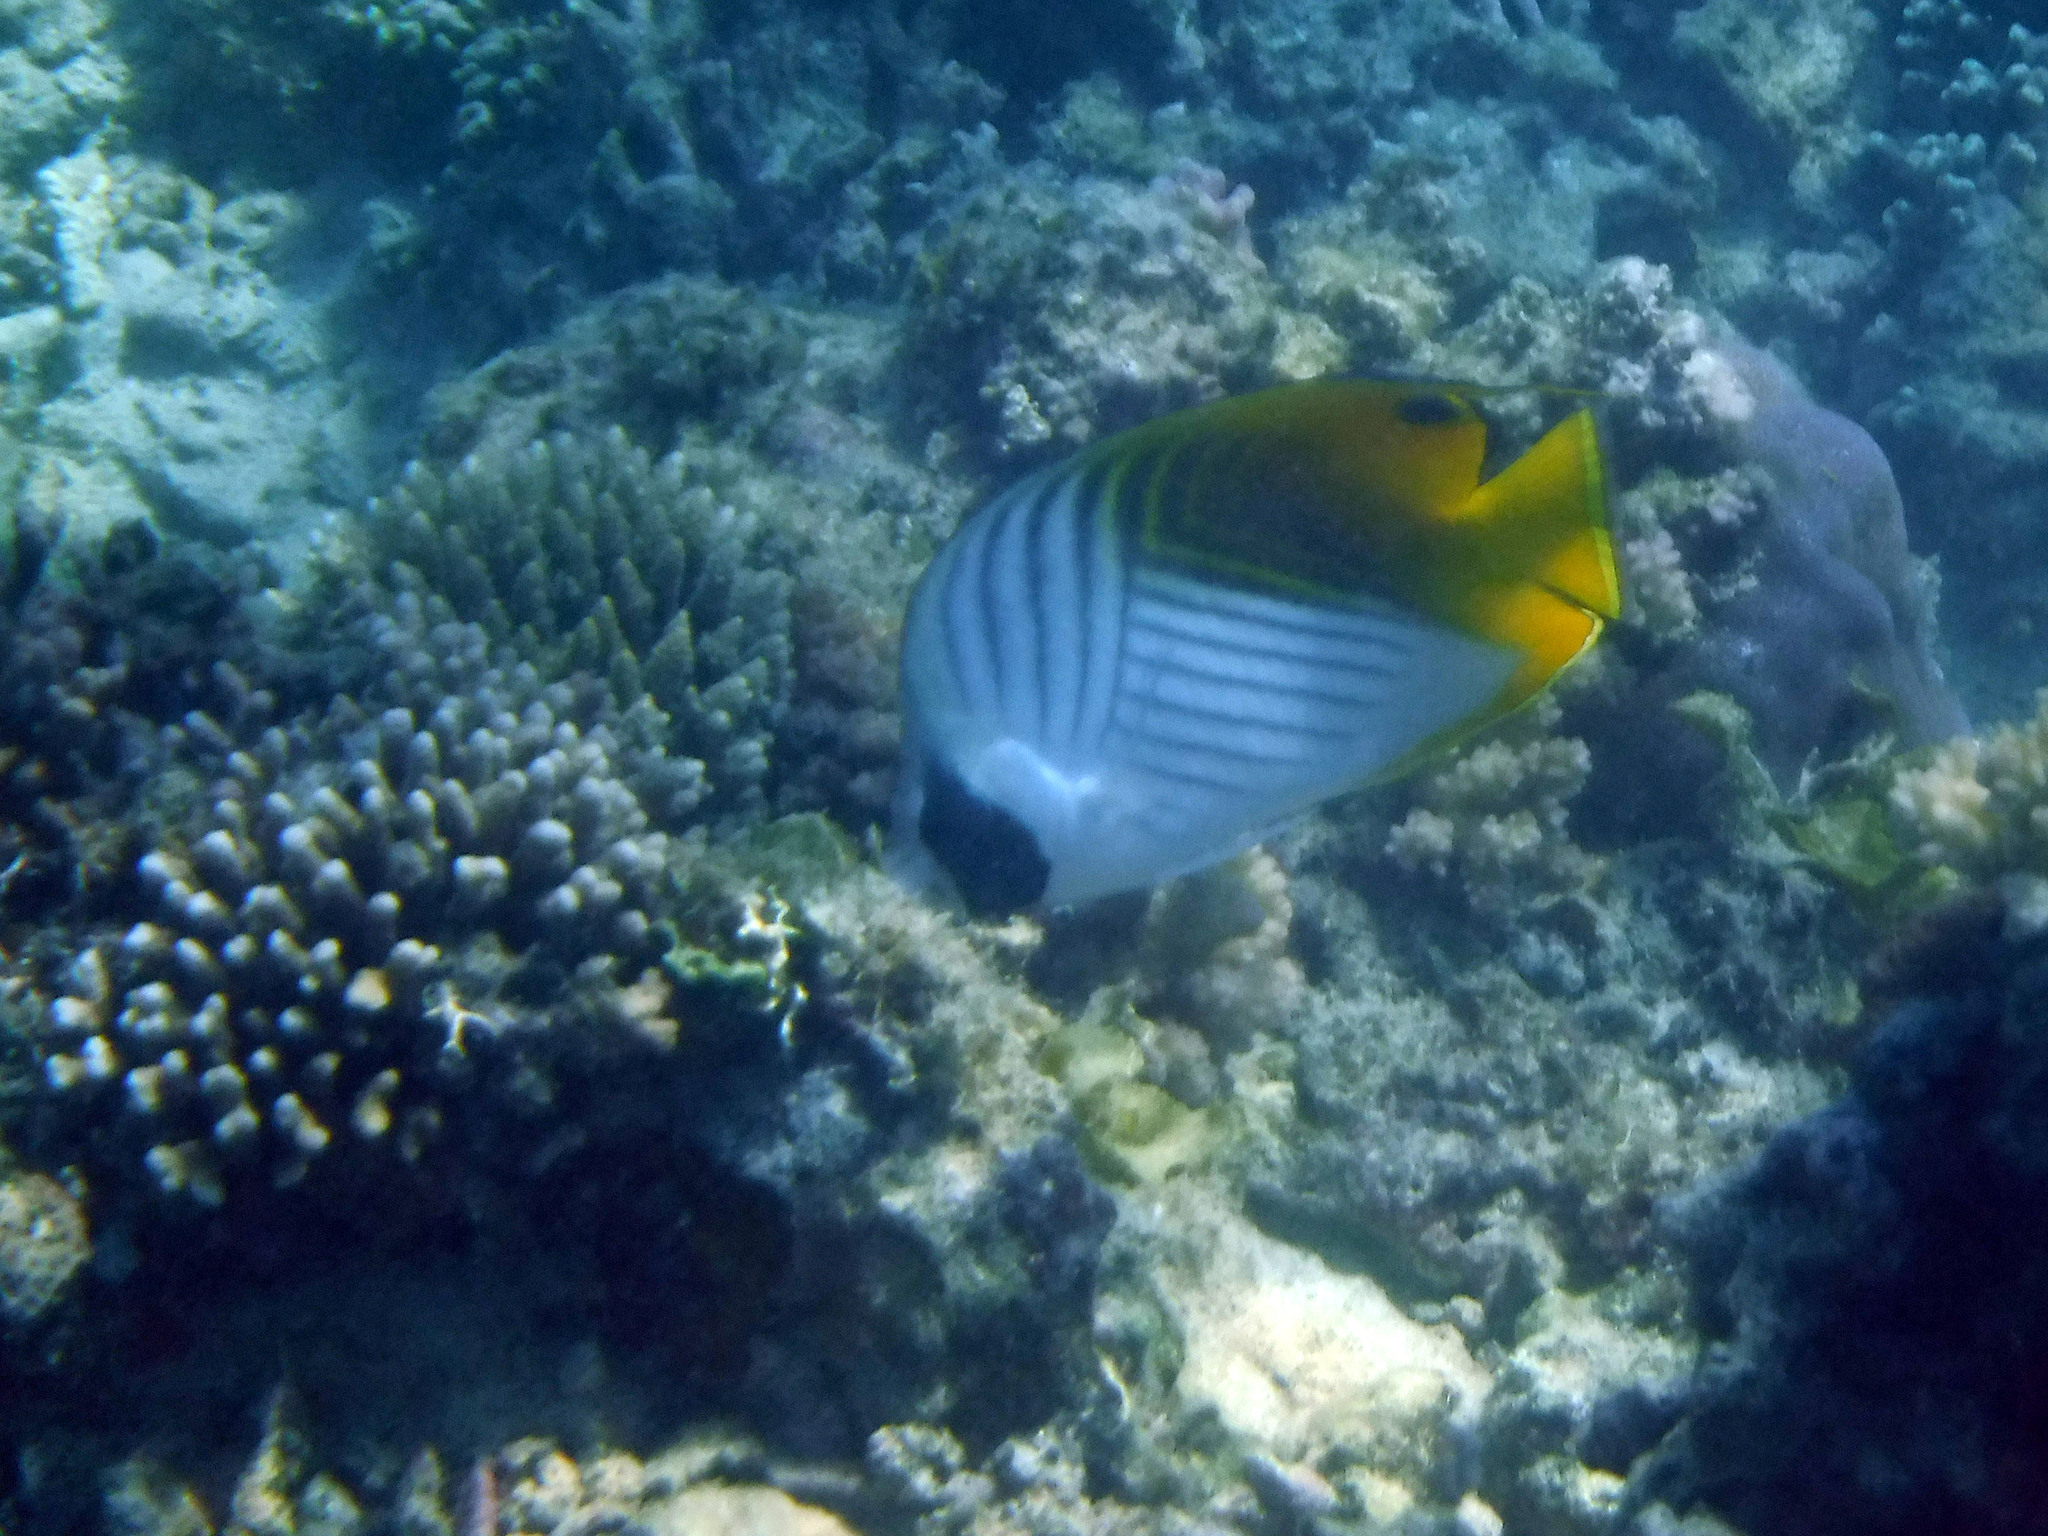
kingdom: Animalia
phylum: Chordata
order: Perciformes
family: Chaetodontidae
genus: Chaetodon
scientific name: Chaetodon auriga
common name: Threadfin butterflyfish
